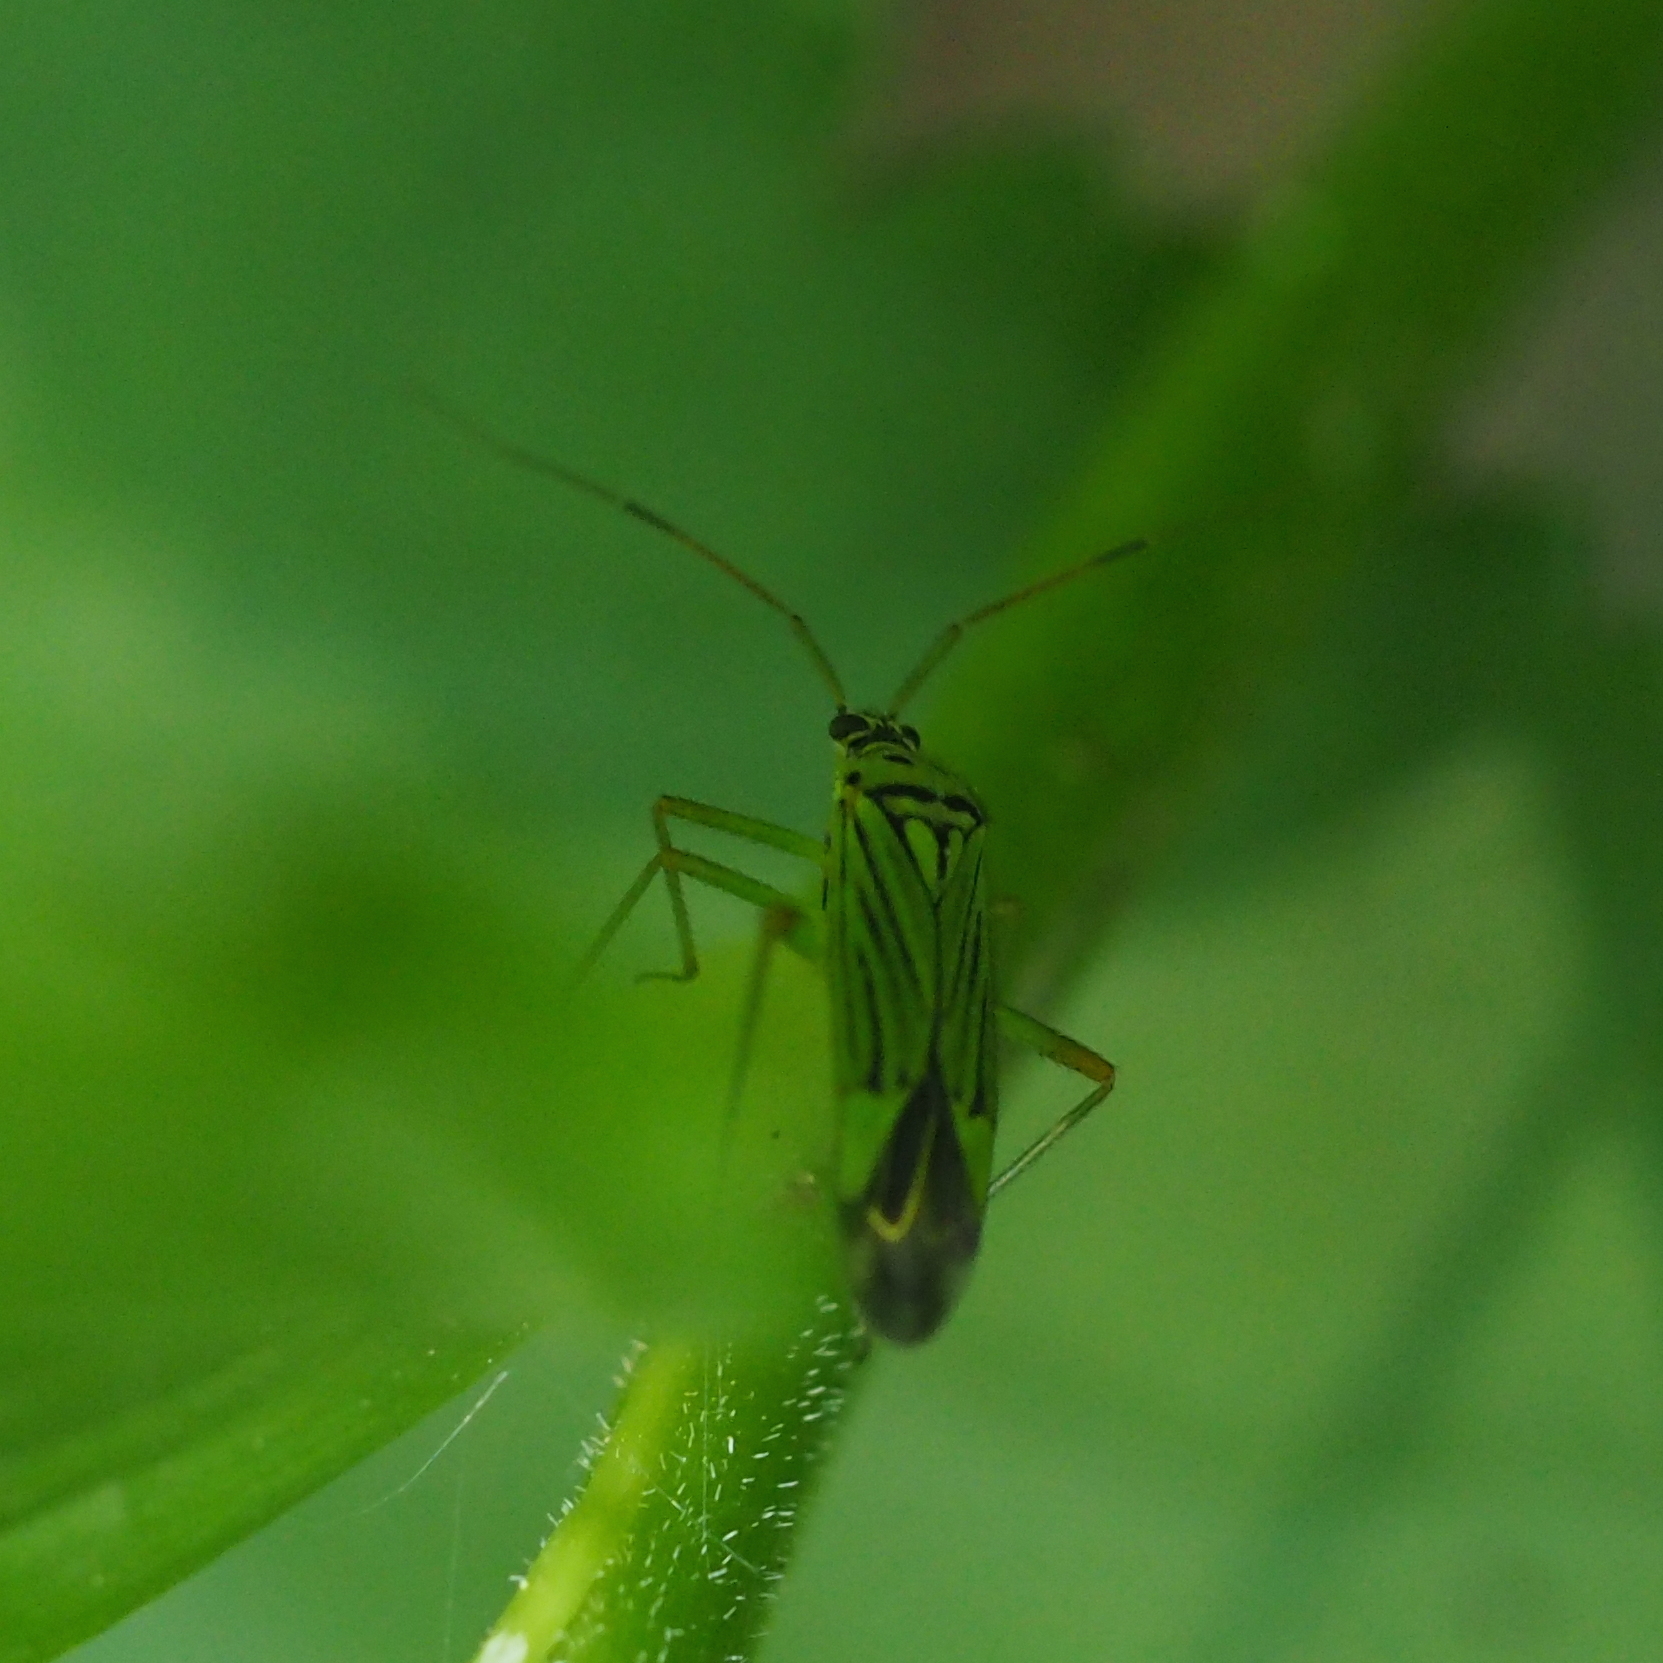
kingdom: Animalia
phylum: Arthropoda
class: Insecta
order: Hemiptera
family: Miridae
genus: Mermitelocerus
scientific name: Mermitelocerus schmidtii
